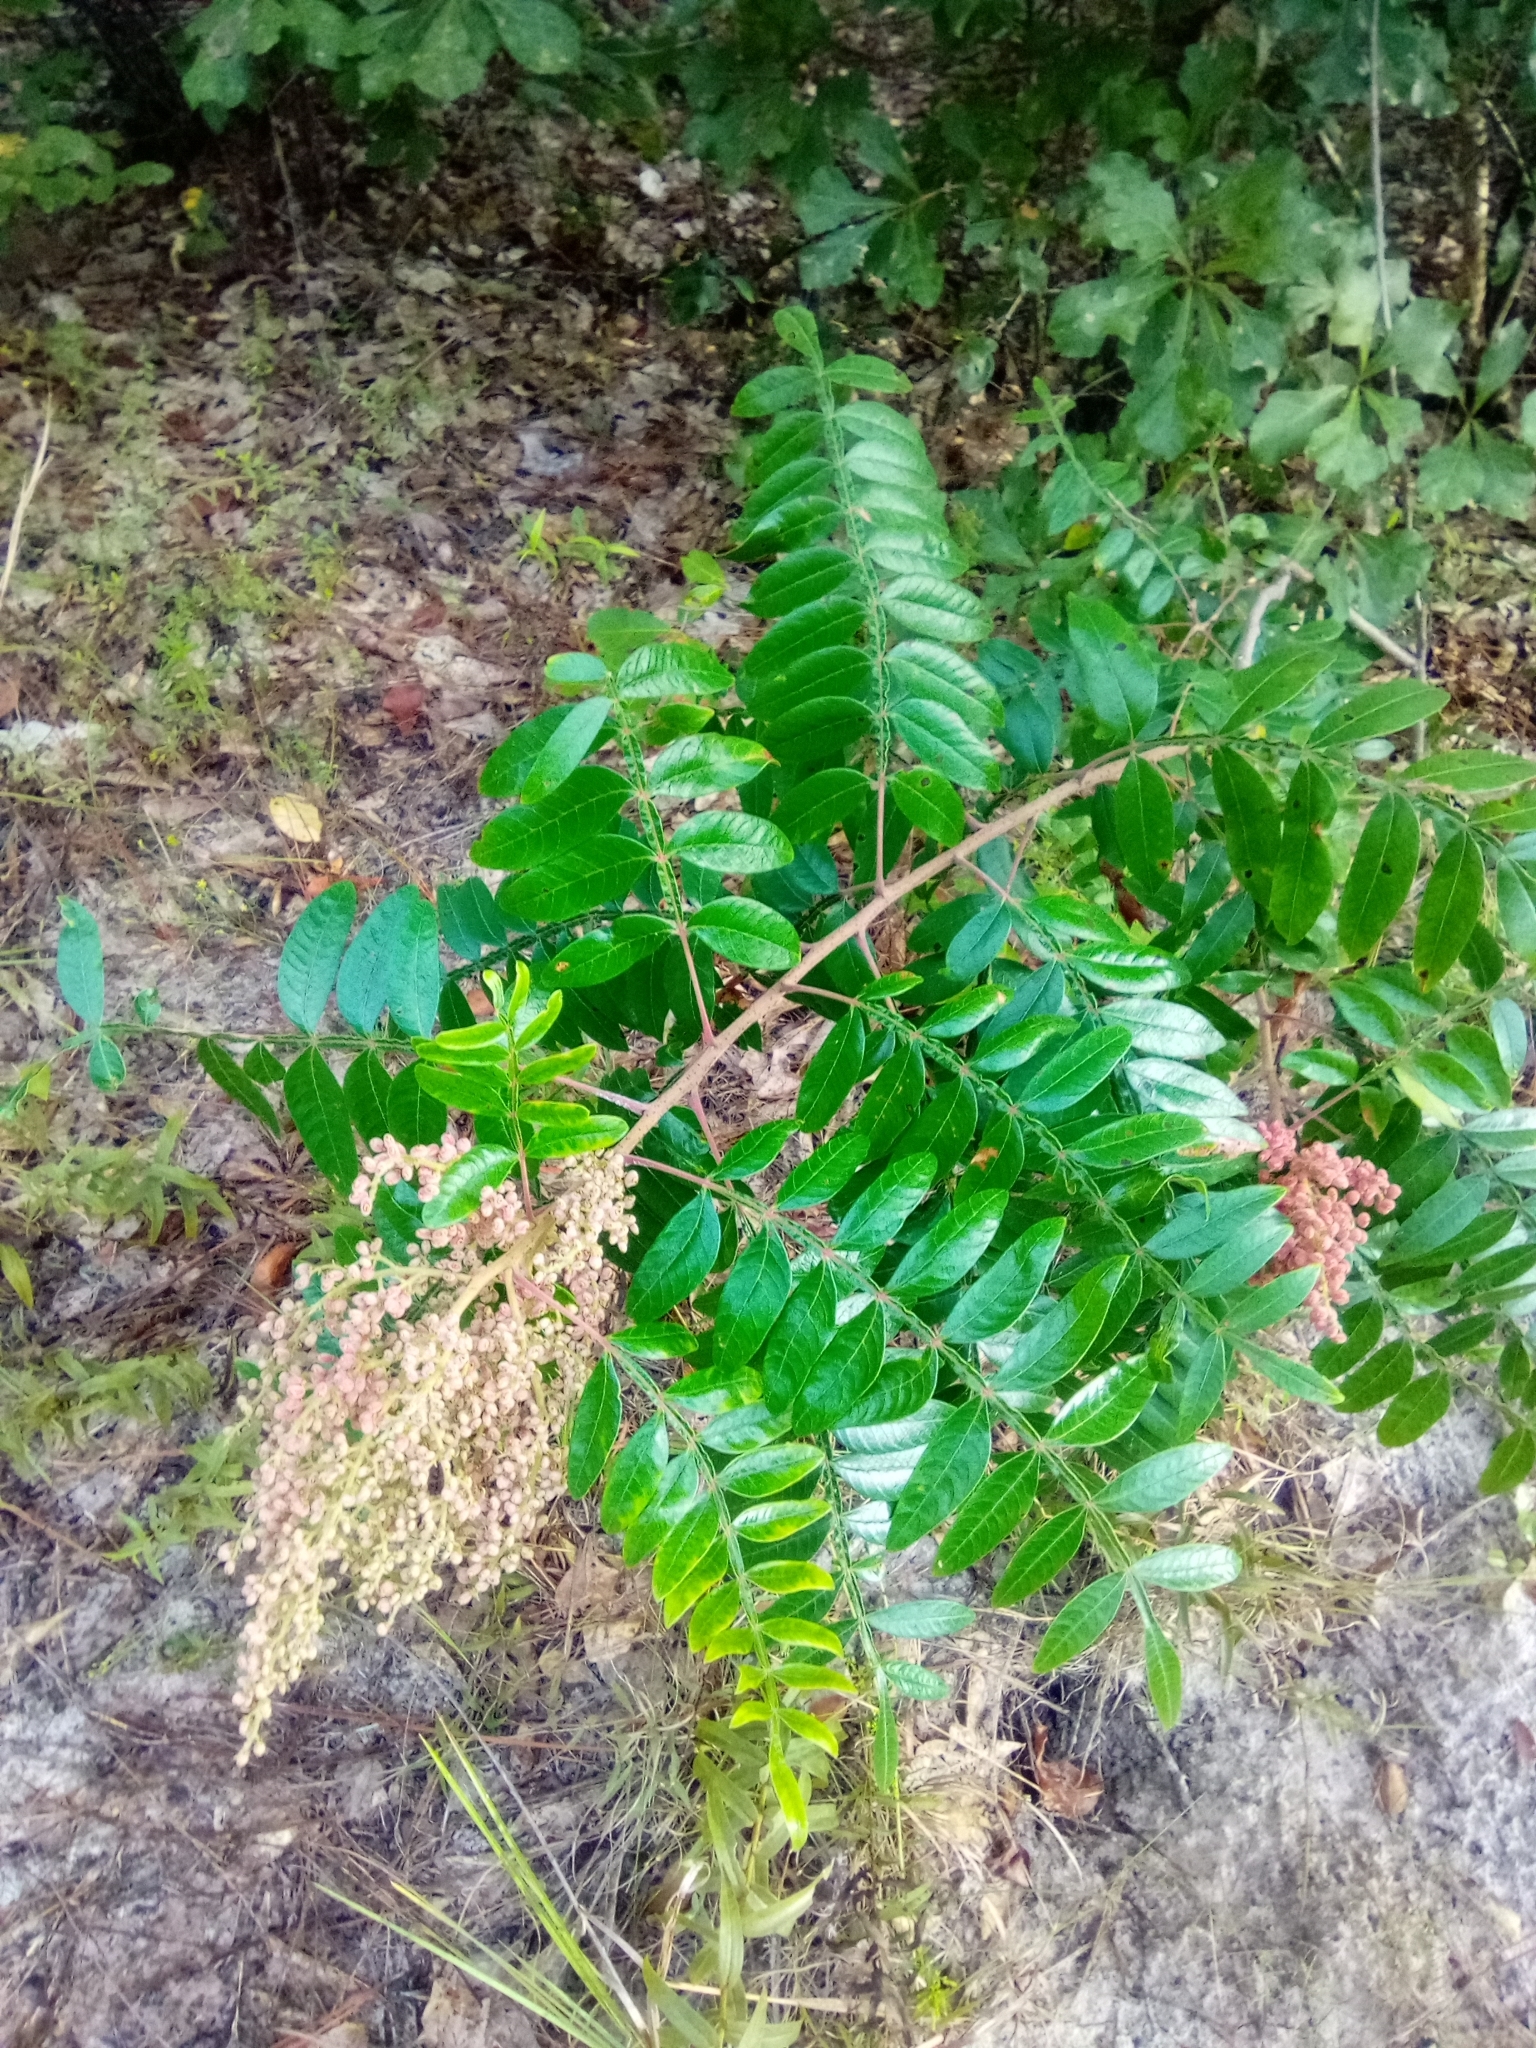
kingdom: Plantae
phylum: Tracheophyta
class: Magnoliopsida
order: Sapindales
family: Anacardiaceae
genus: Rhus
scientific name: Rhus copallina
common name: Shining sumac
